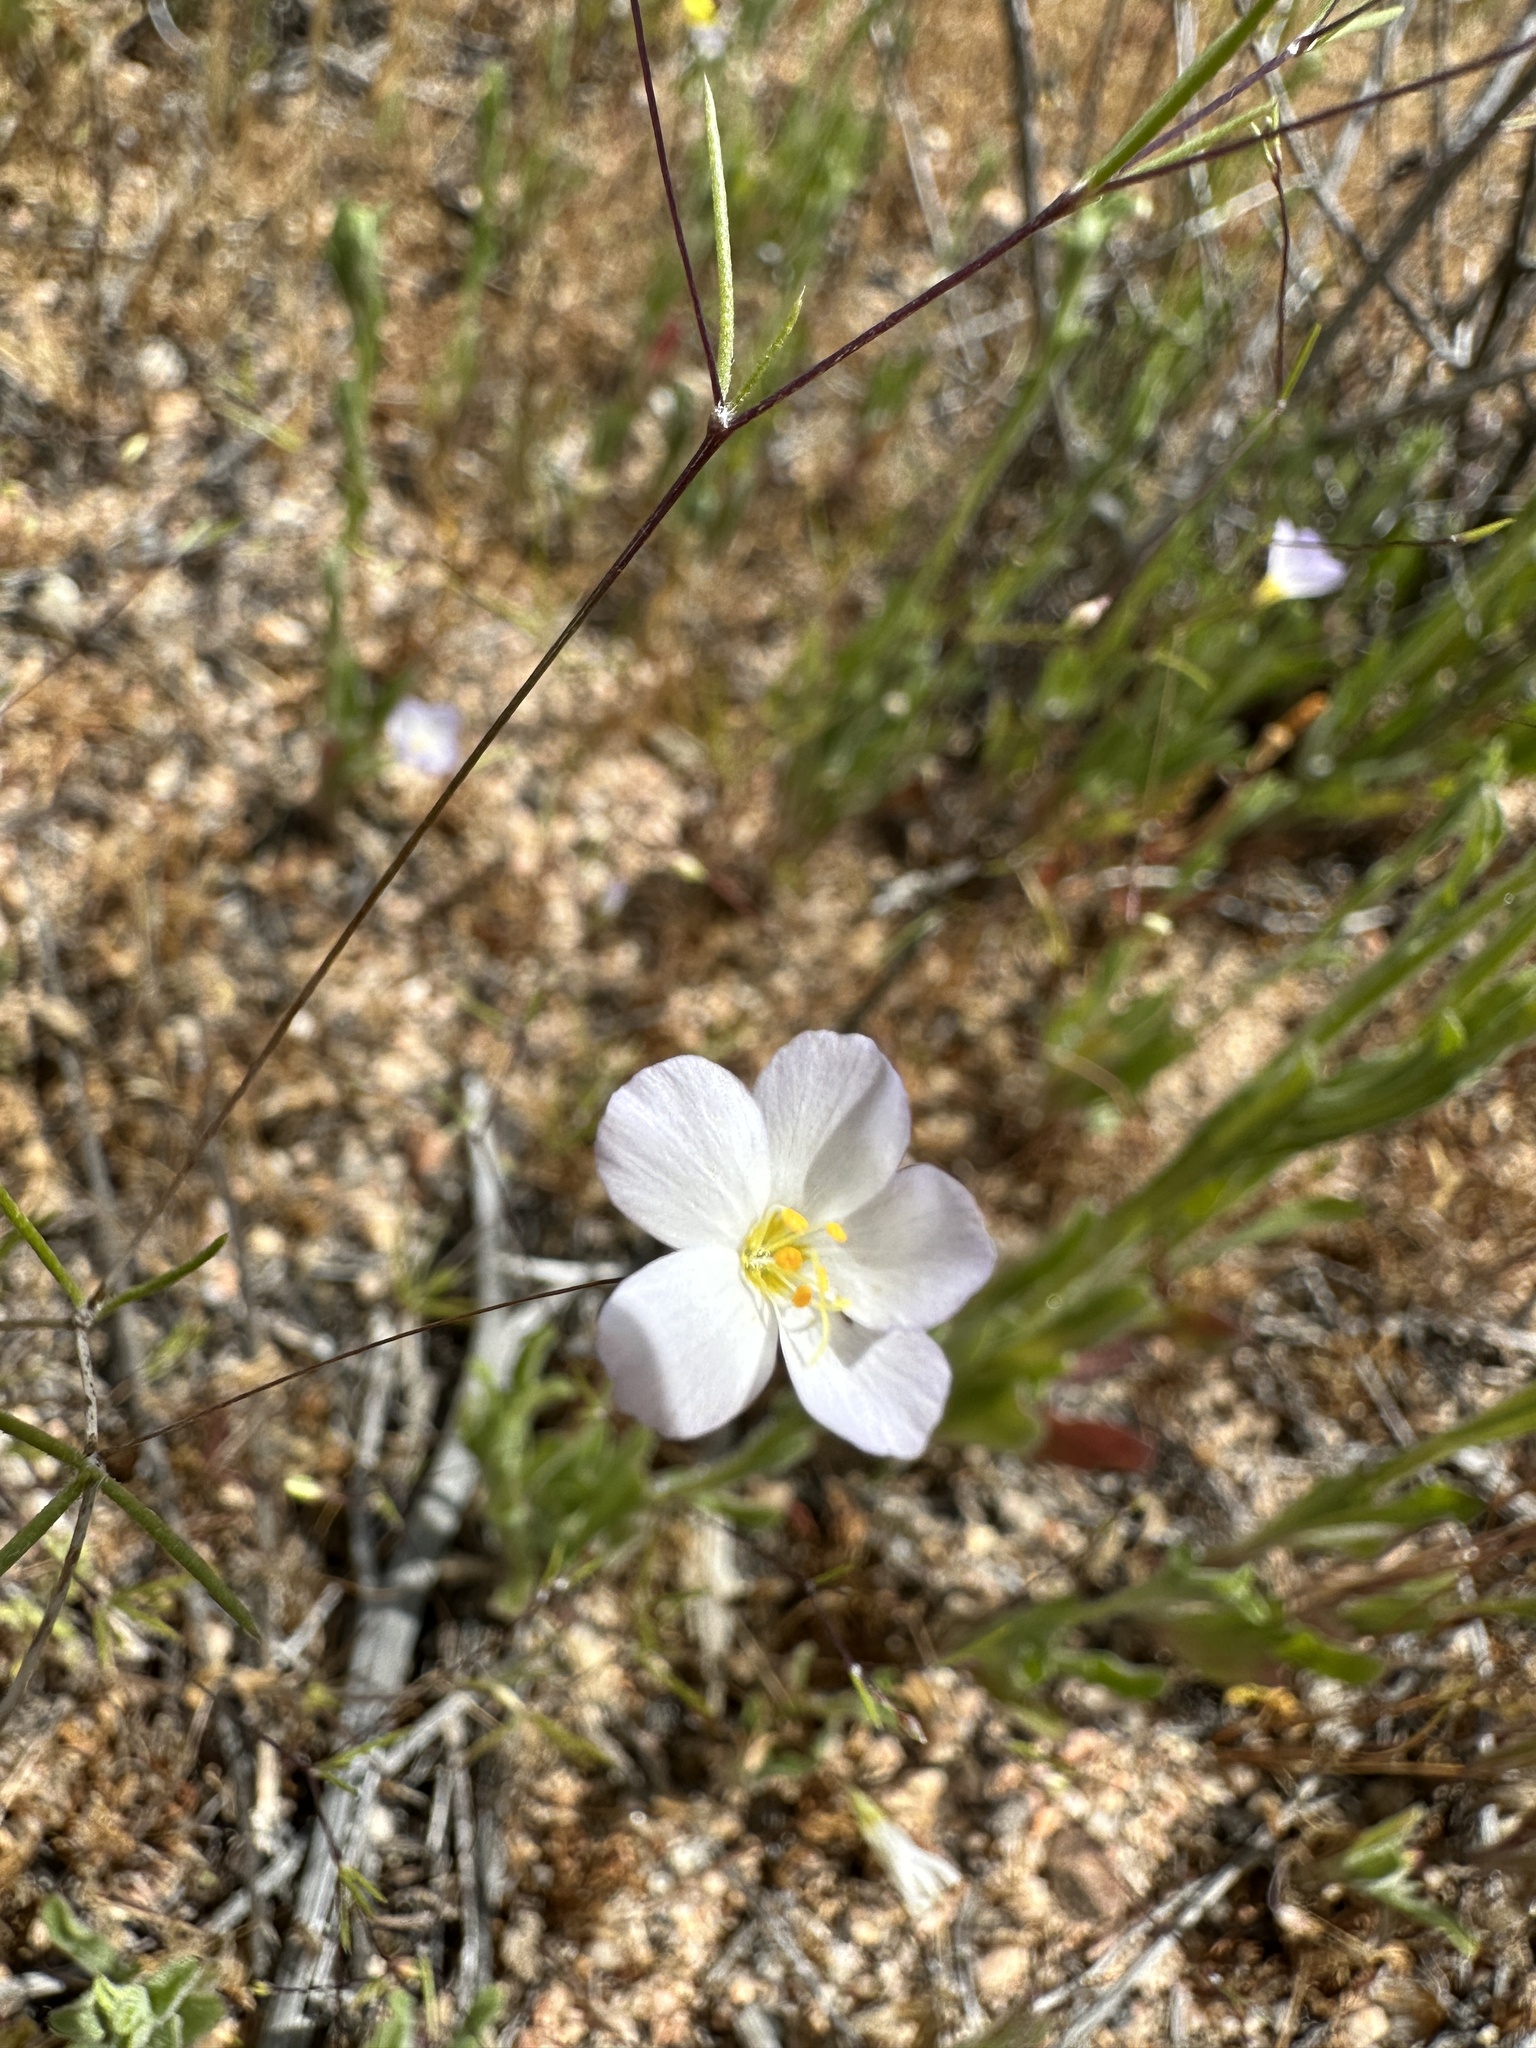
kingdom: Plantae
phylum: Tracheophyta
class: Magnoliopsida
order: Ericales
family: Polemoniaceae
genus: Leptosiphon
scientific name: Leptosiphon liniflorus
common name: Narrowflower flaxflower
